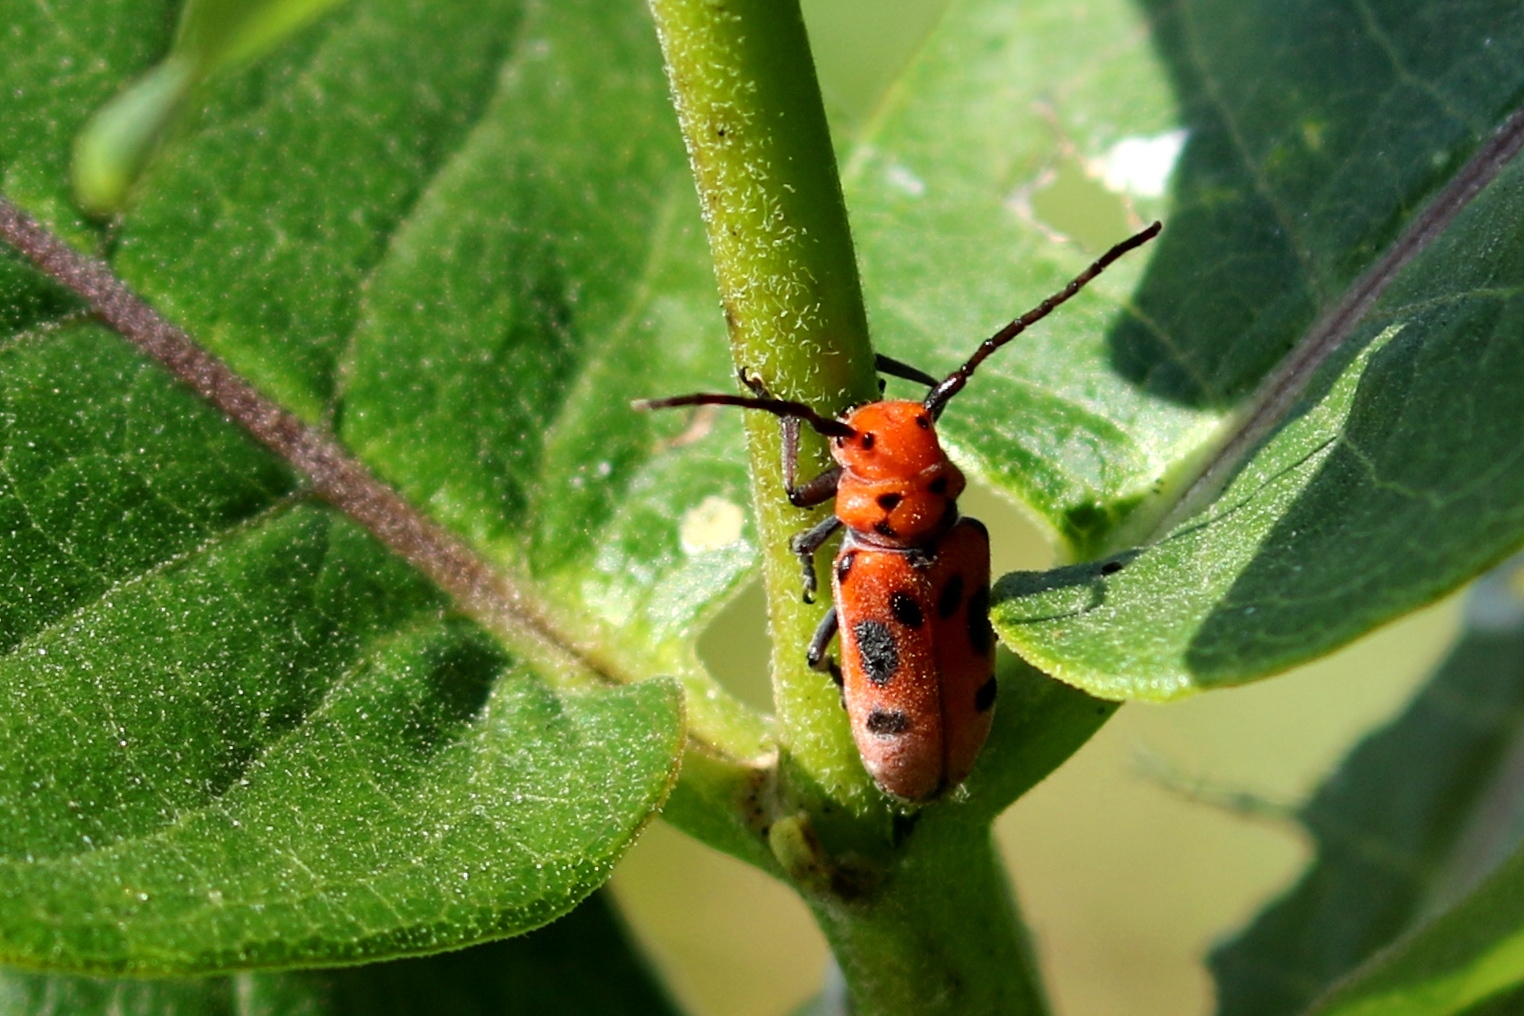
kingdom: Animalia
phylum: Arthropoda
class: Insecta
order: Coleoptera
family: Cerambycidae
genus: Tetraopes
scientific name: Tetraopes tetrophthalmus
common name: Red milkweed beetle
